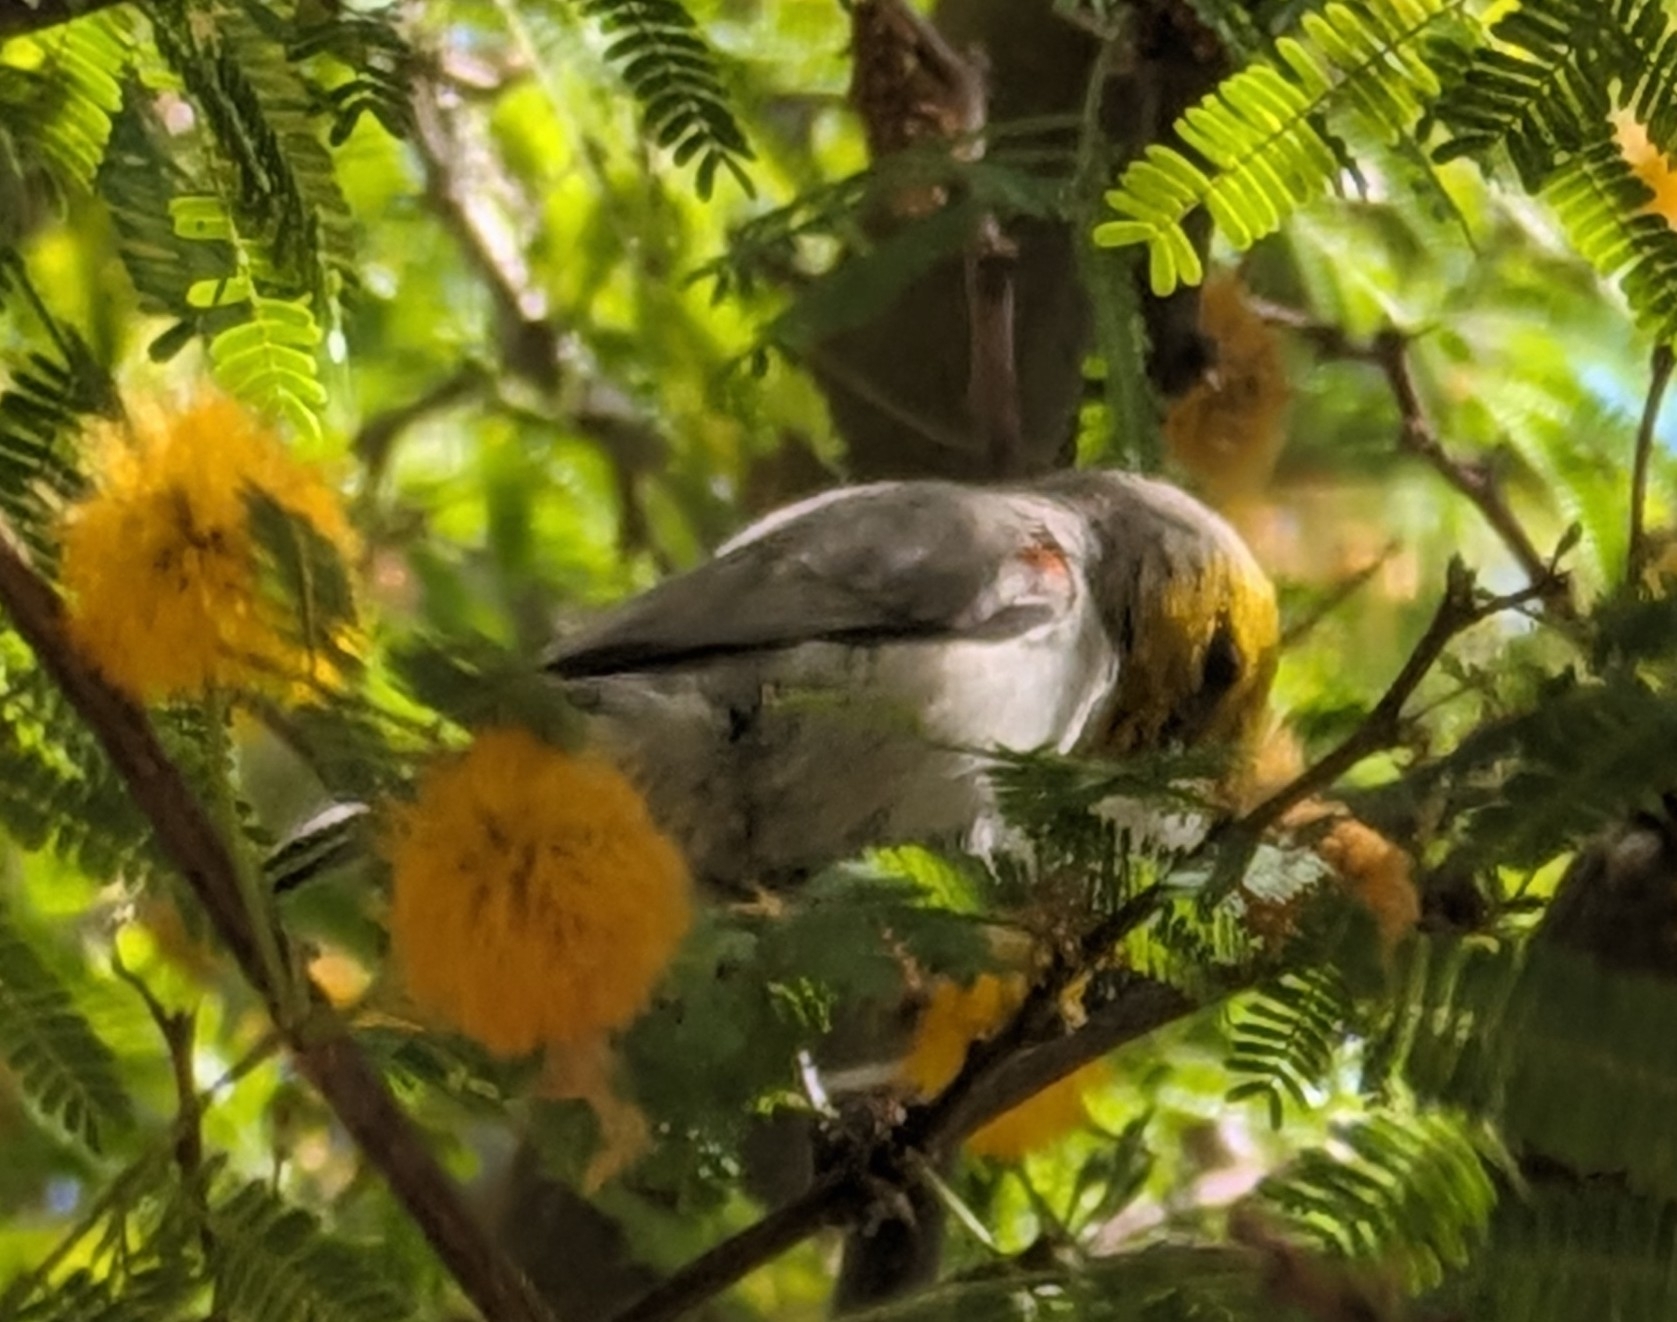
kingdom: Animalia
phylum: Chordata
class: Aves
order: Passeriformes
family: Remizidae
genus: Auriparus
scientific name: Auriparus flaviceps
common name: Verdin
